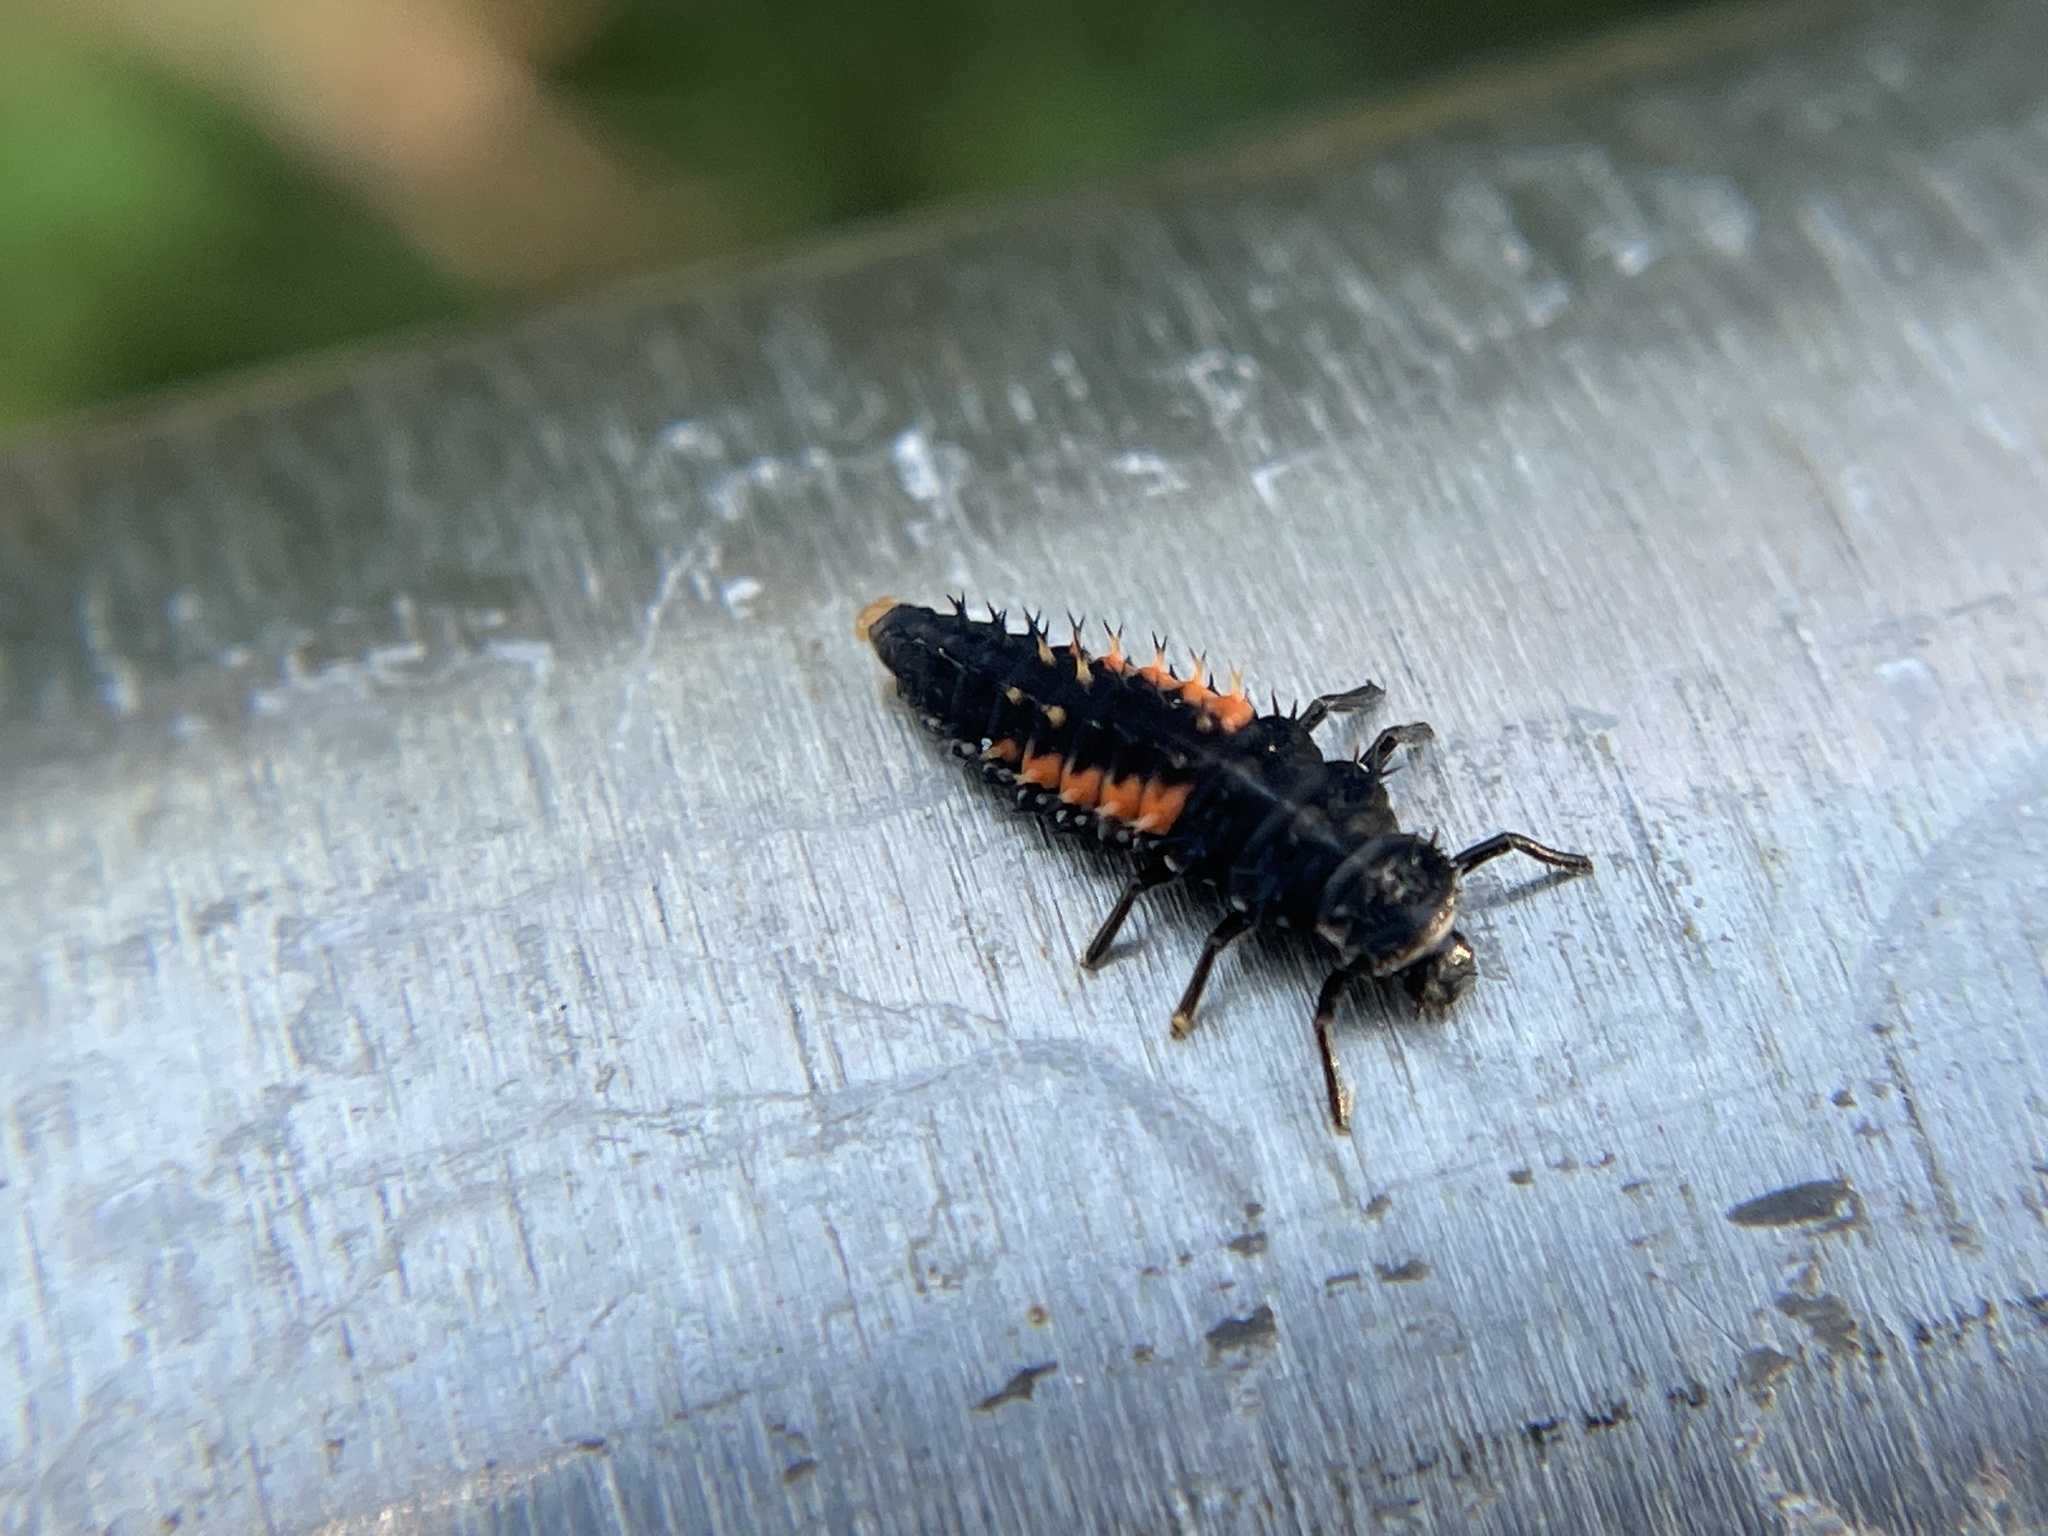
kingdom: Animalia
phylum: Arthropoda
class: Insecta
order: Coleoptera
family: Coccinellidae
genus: Harmonia
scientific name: Harmonia axyridis
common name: Harlequin ladybird
